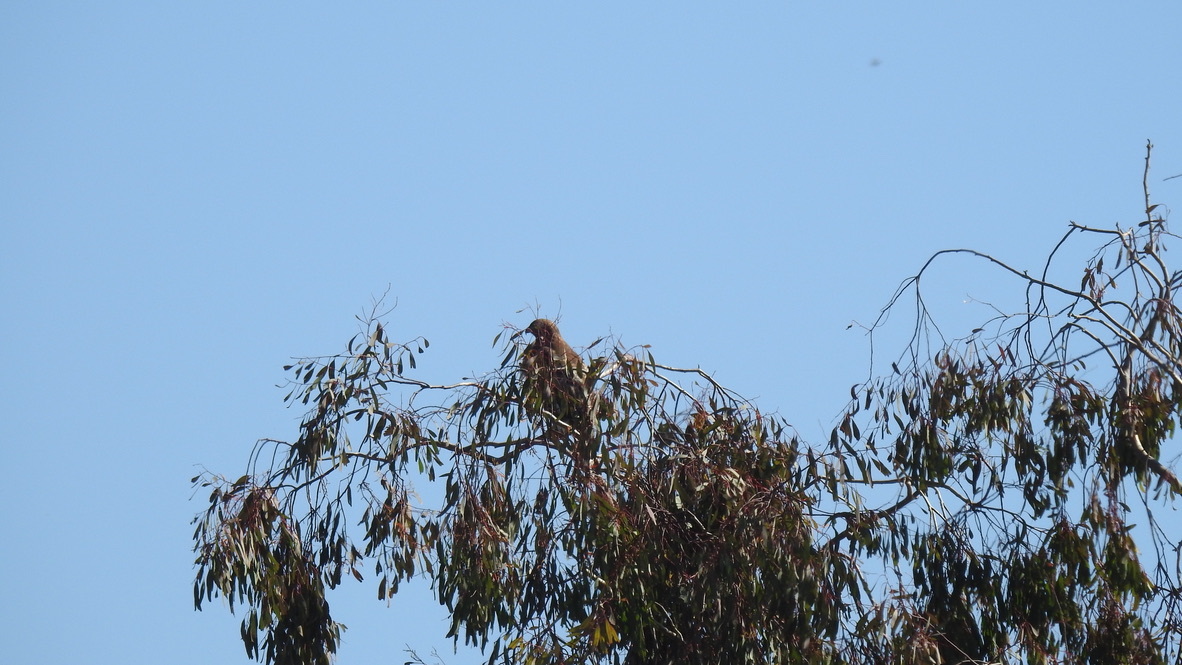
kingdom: Animalia
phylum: Chordata
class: Aves
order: Accipitriformes
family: Accipitridae
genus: Buteo
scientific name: Buteo lineatus
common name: Red-shouldered hawk
